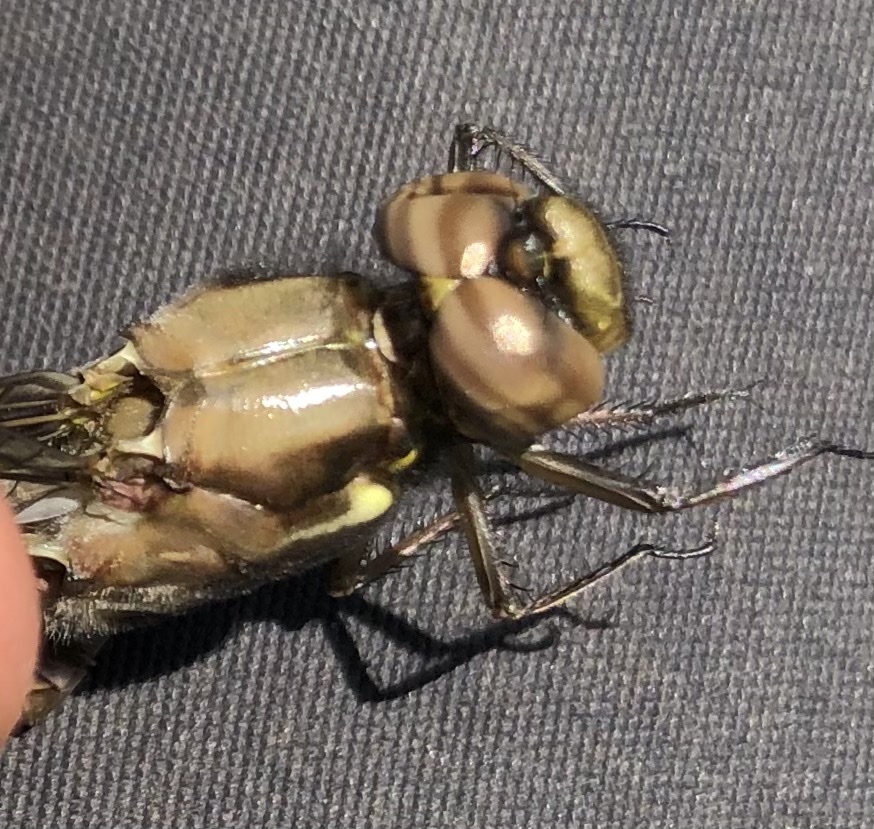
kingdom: Animalia
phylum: Arthropoda
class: Insecta
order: Odonata
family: Libellulidae
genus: Plathemis
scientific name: Plathemis lydia
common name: Common whitetail
